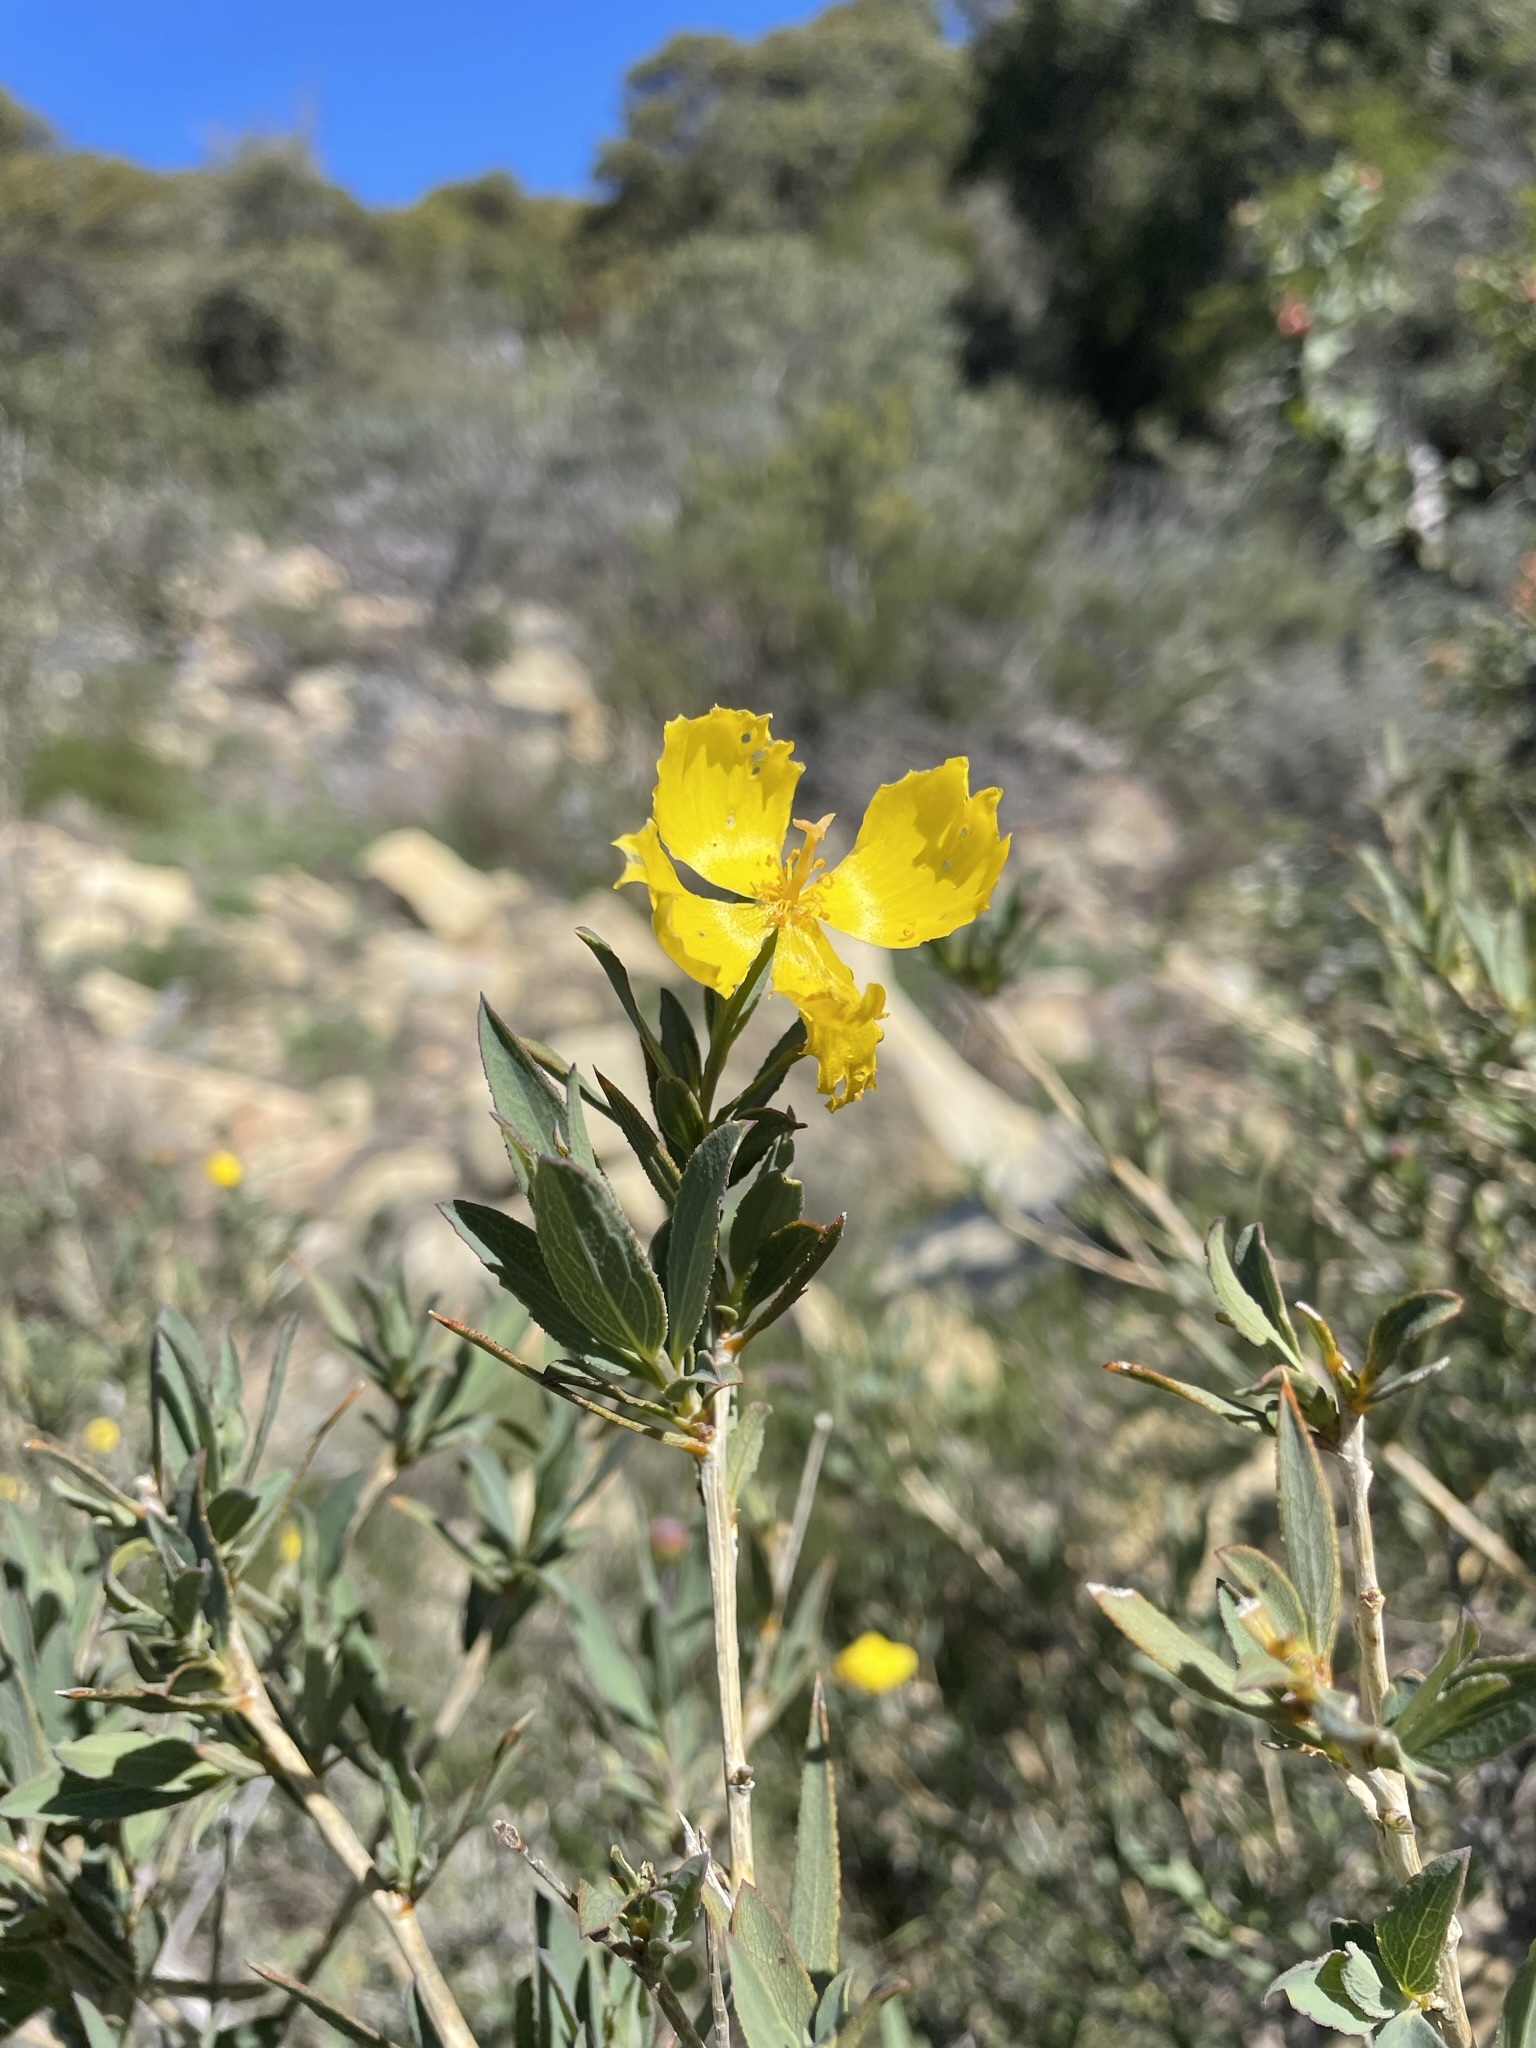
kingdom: Plantae
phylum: Tracheophyta
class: Magnoliopsida
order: Ranunculales
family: Papaveraceae
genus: Dendromecon
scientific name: Dendromecon rigida
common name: Tree poppy
